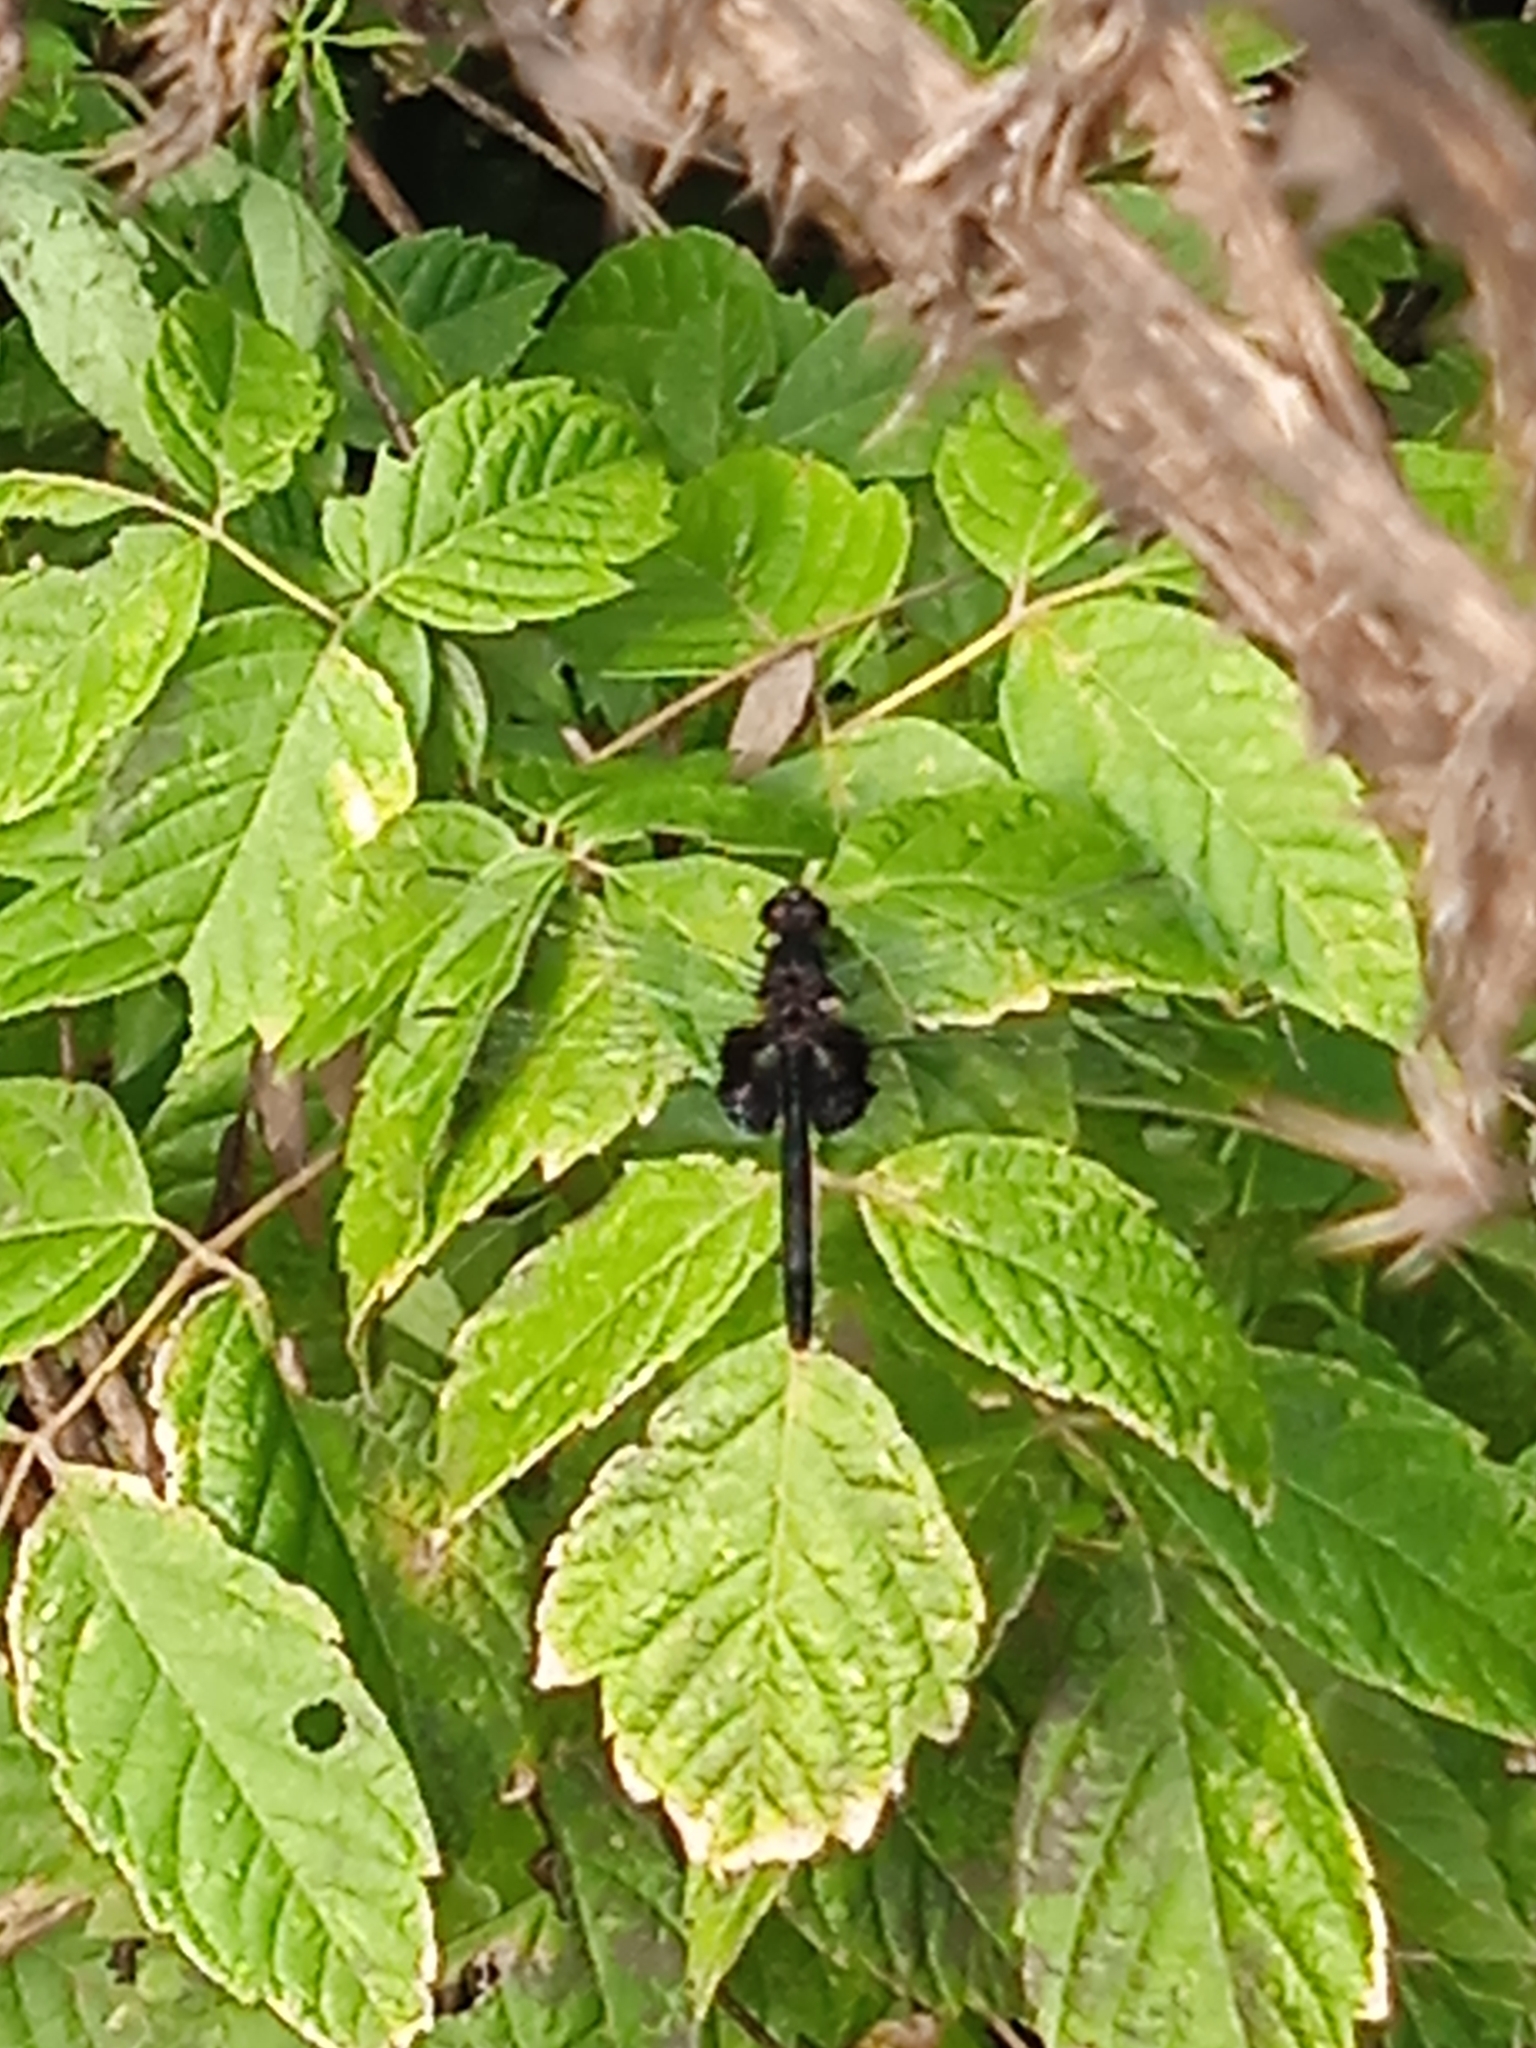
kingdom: Animalia
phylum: Arthropoda
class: Insecta
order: Odonata
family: Libellulidae
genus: Erythemis
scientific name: Erythemis attala
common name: Black pondhawk
